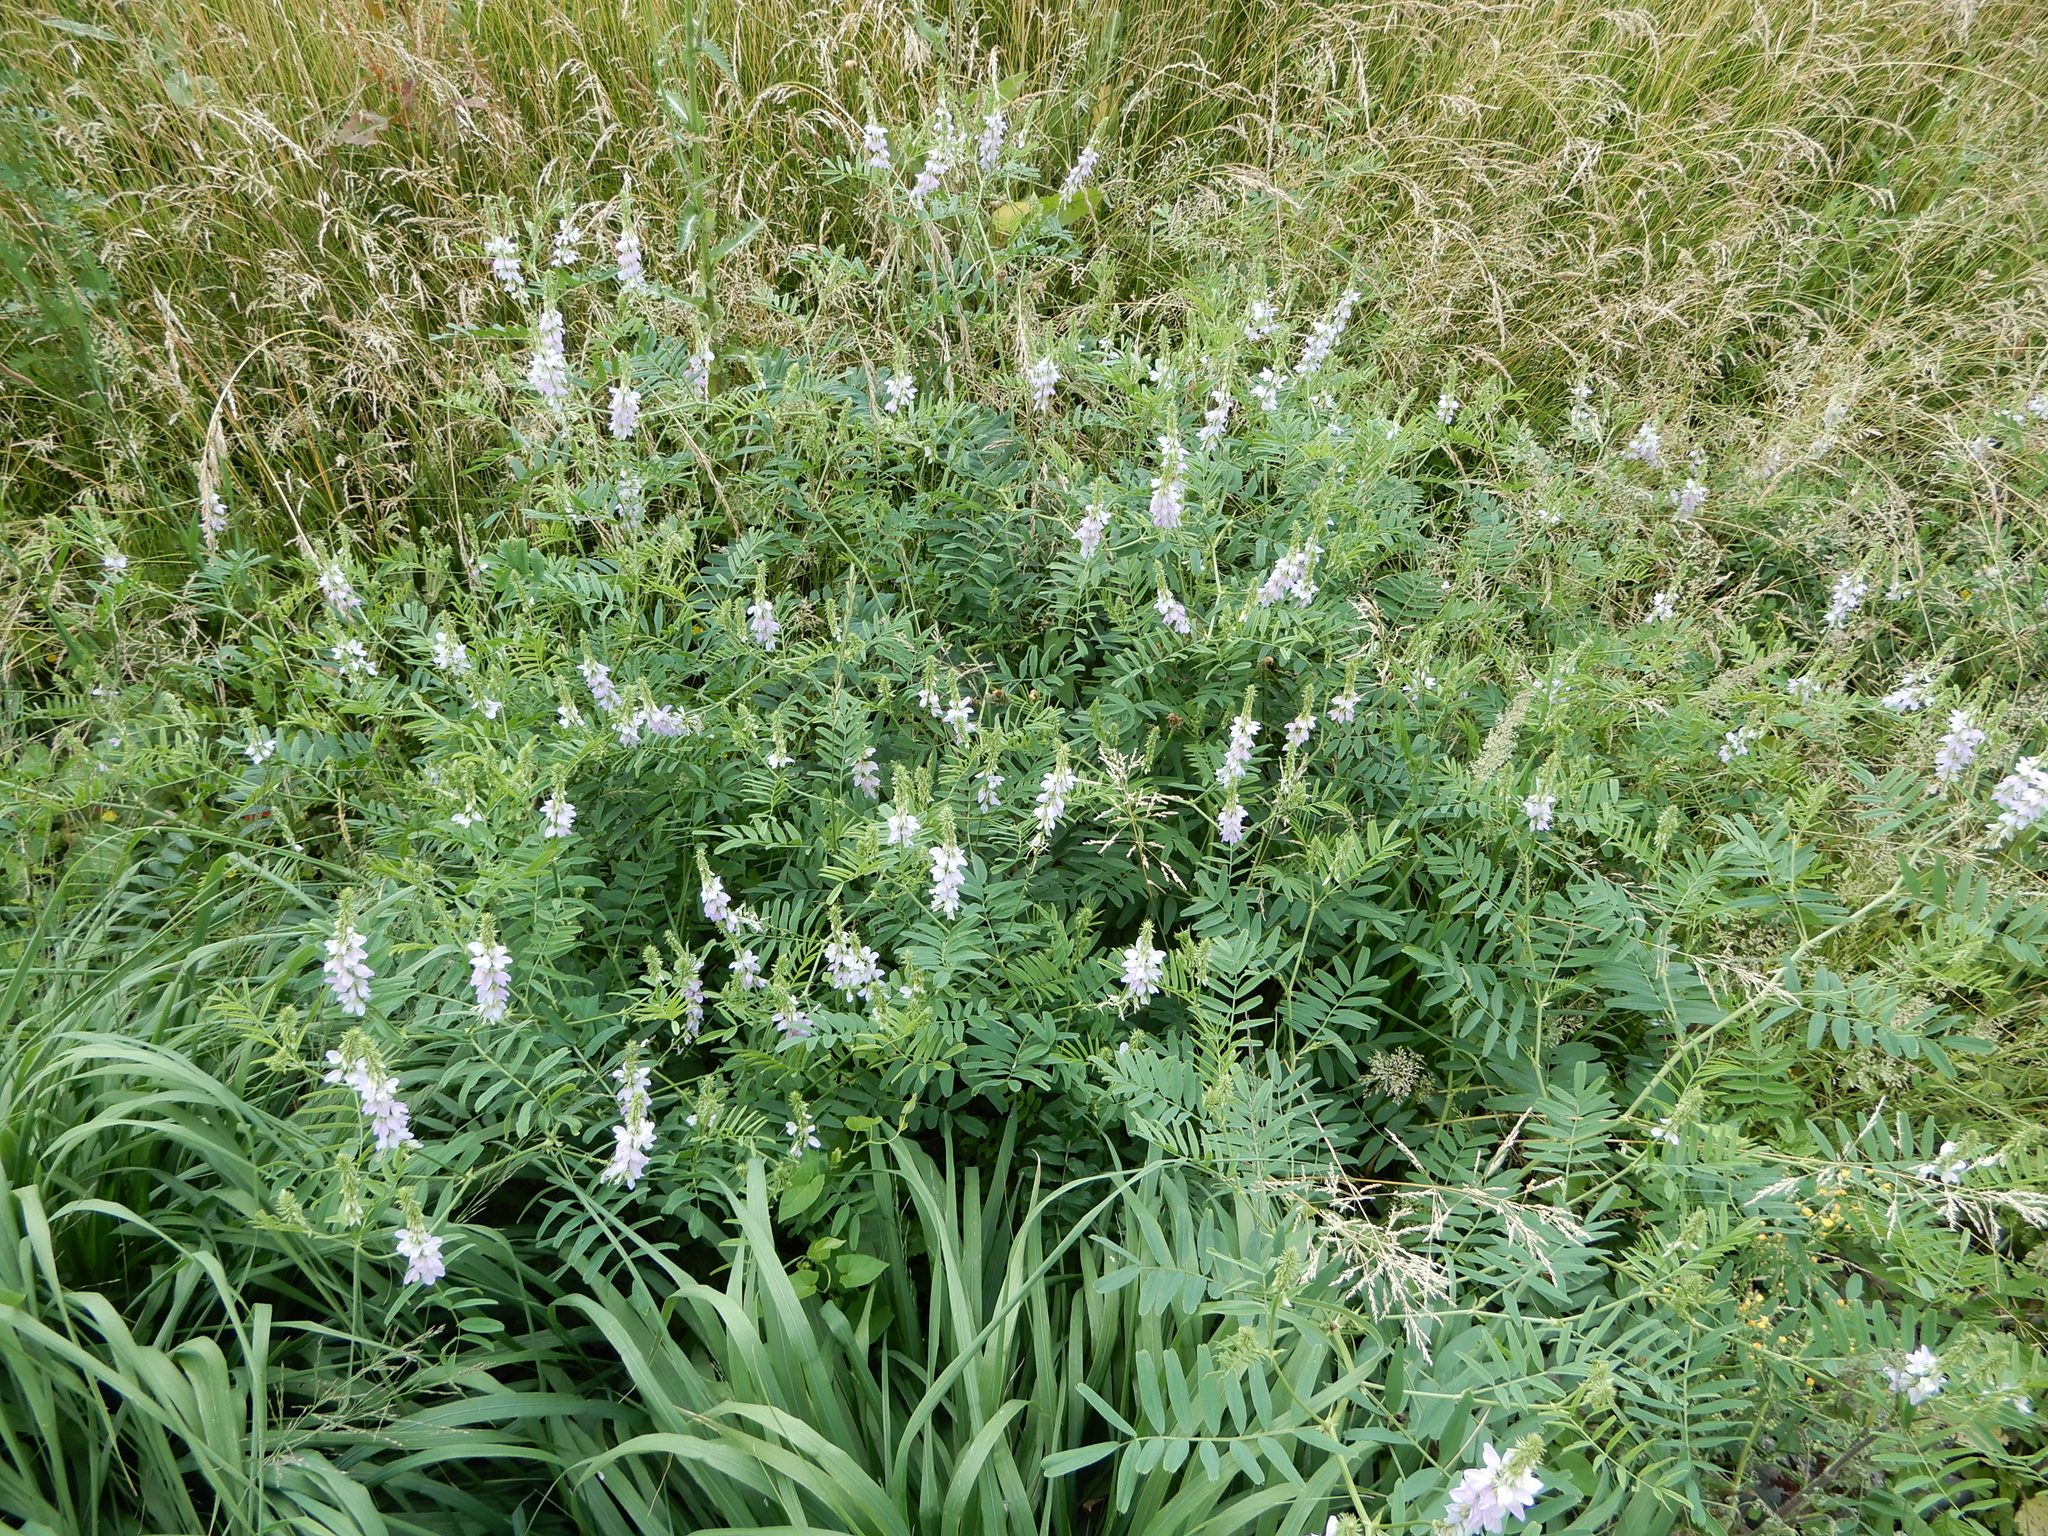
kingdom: Plantae
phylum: Tracheophyta
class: Magnoliopsida
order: Fabales
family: Fabaceae
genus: Galega
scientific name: Galega officinalis
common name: Goat's-rue
